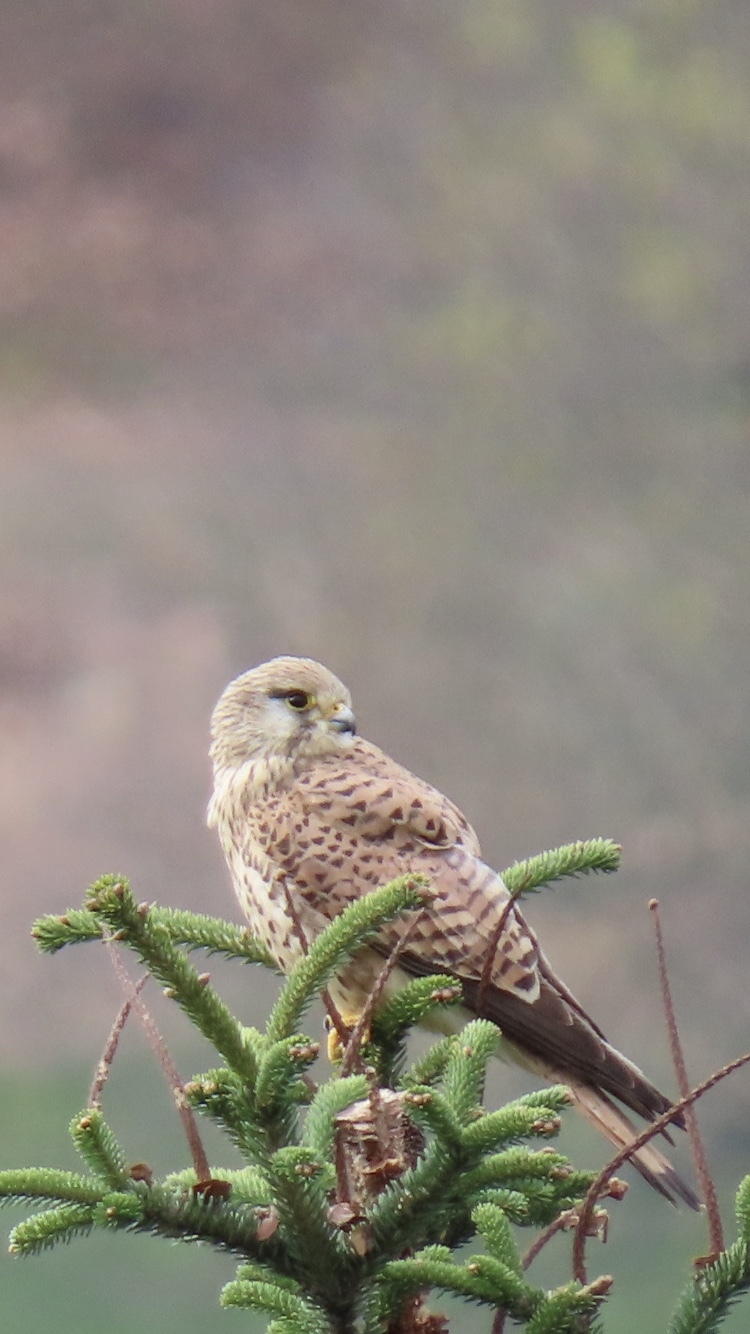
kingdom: Animalia
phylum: Chordata
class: Aves
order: Falconiformes
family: Falconidae
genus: Falco
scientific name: Falco tinnunculus
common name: Common kestrel
